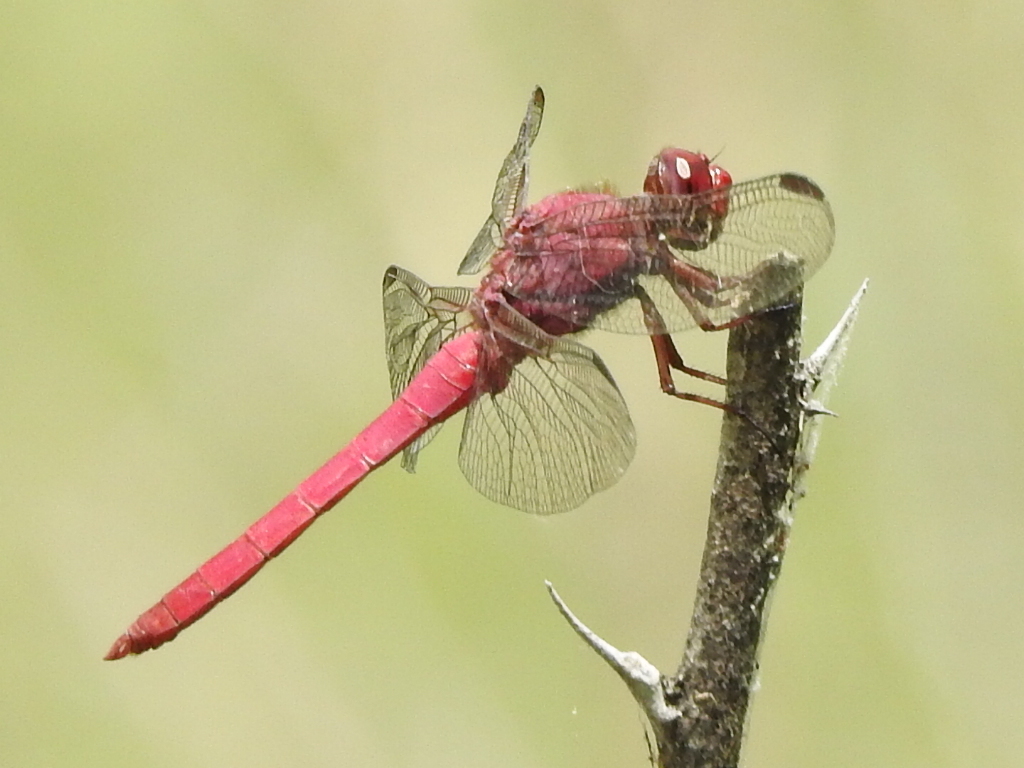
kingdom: Animalia
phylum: Arthropoda
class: Insecta
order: Odonata
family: Libellulidae
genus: Orthemis
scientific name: Orthemis discolor
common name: Carmine skimmer
